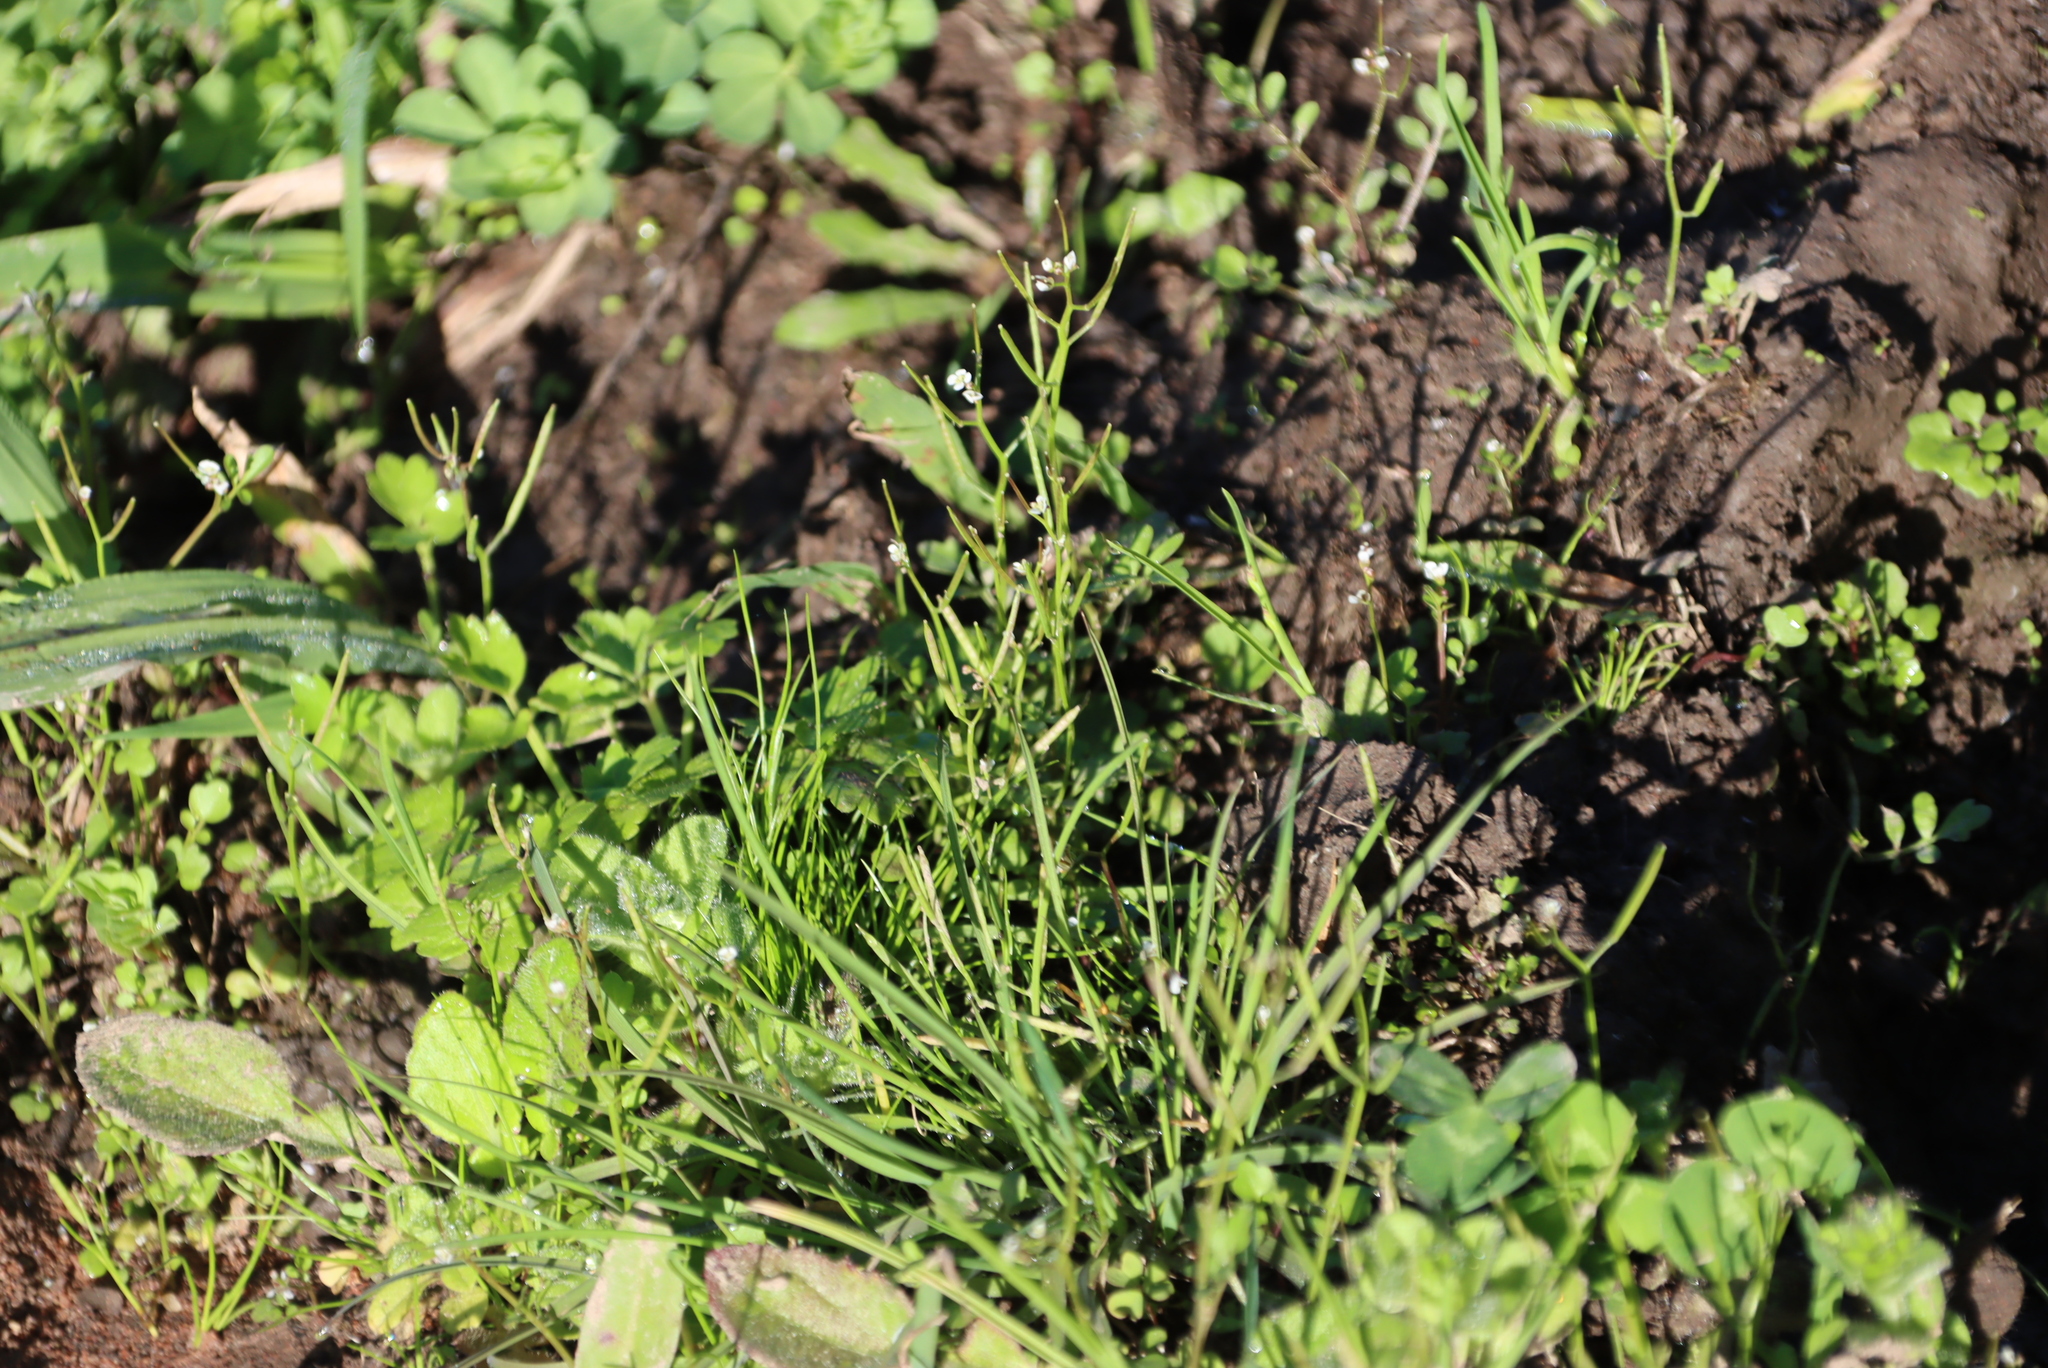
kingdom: Plantae
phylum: Tracheophyta
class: Magnoliopsida
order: Brassicales
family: Brassicaceae
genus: Cardamine
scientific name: Cardamine hirsuta
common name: Hairy bittercress
